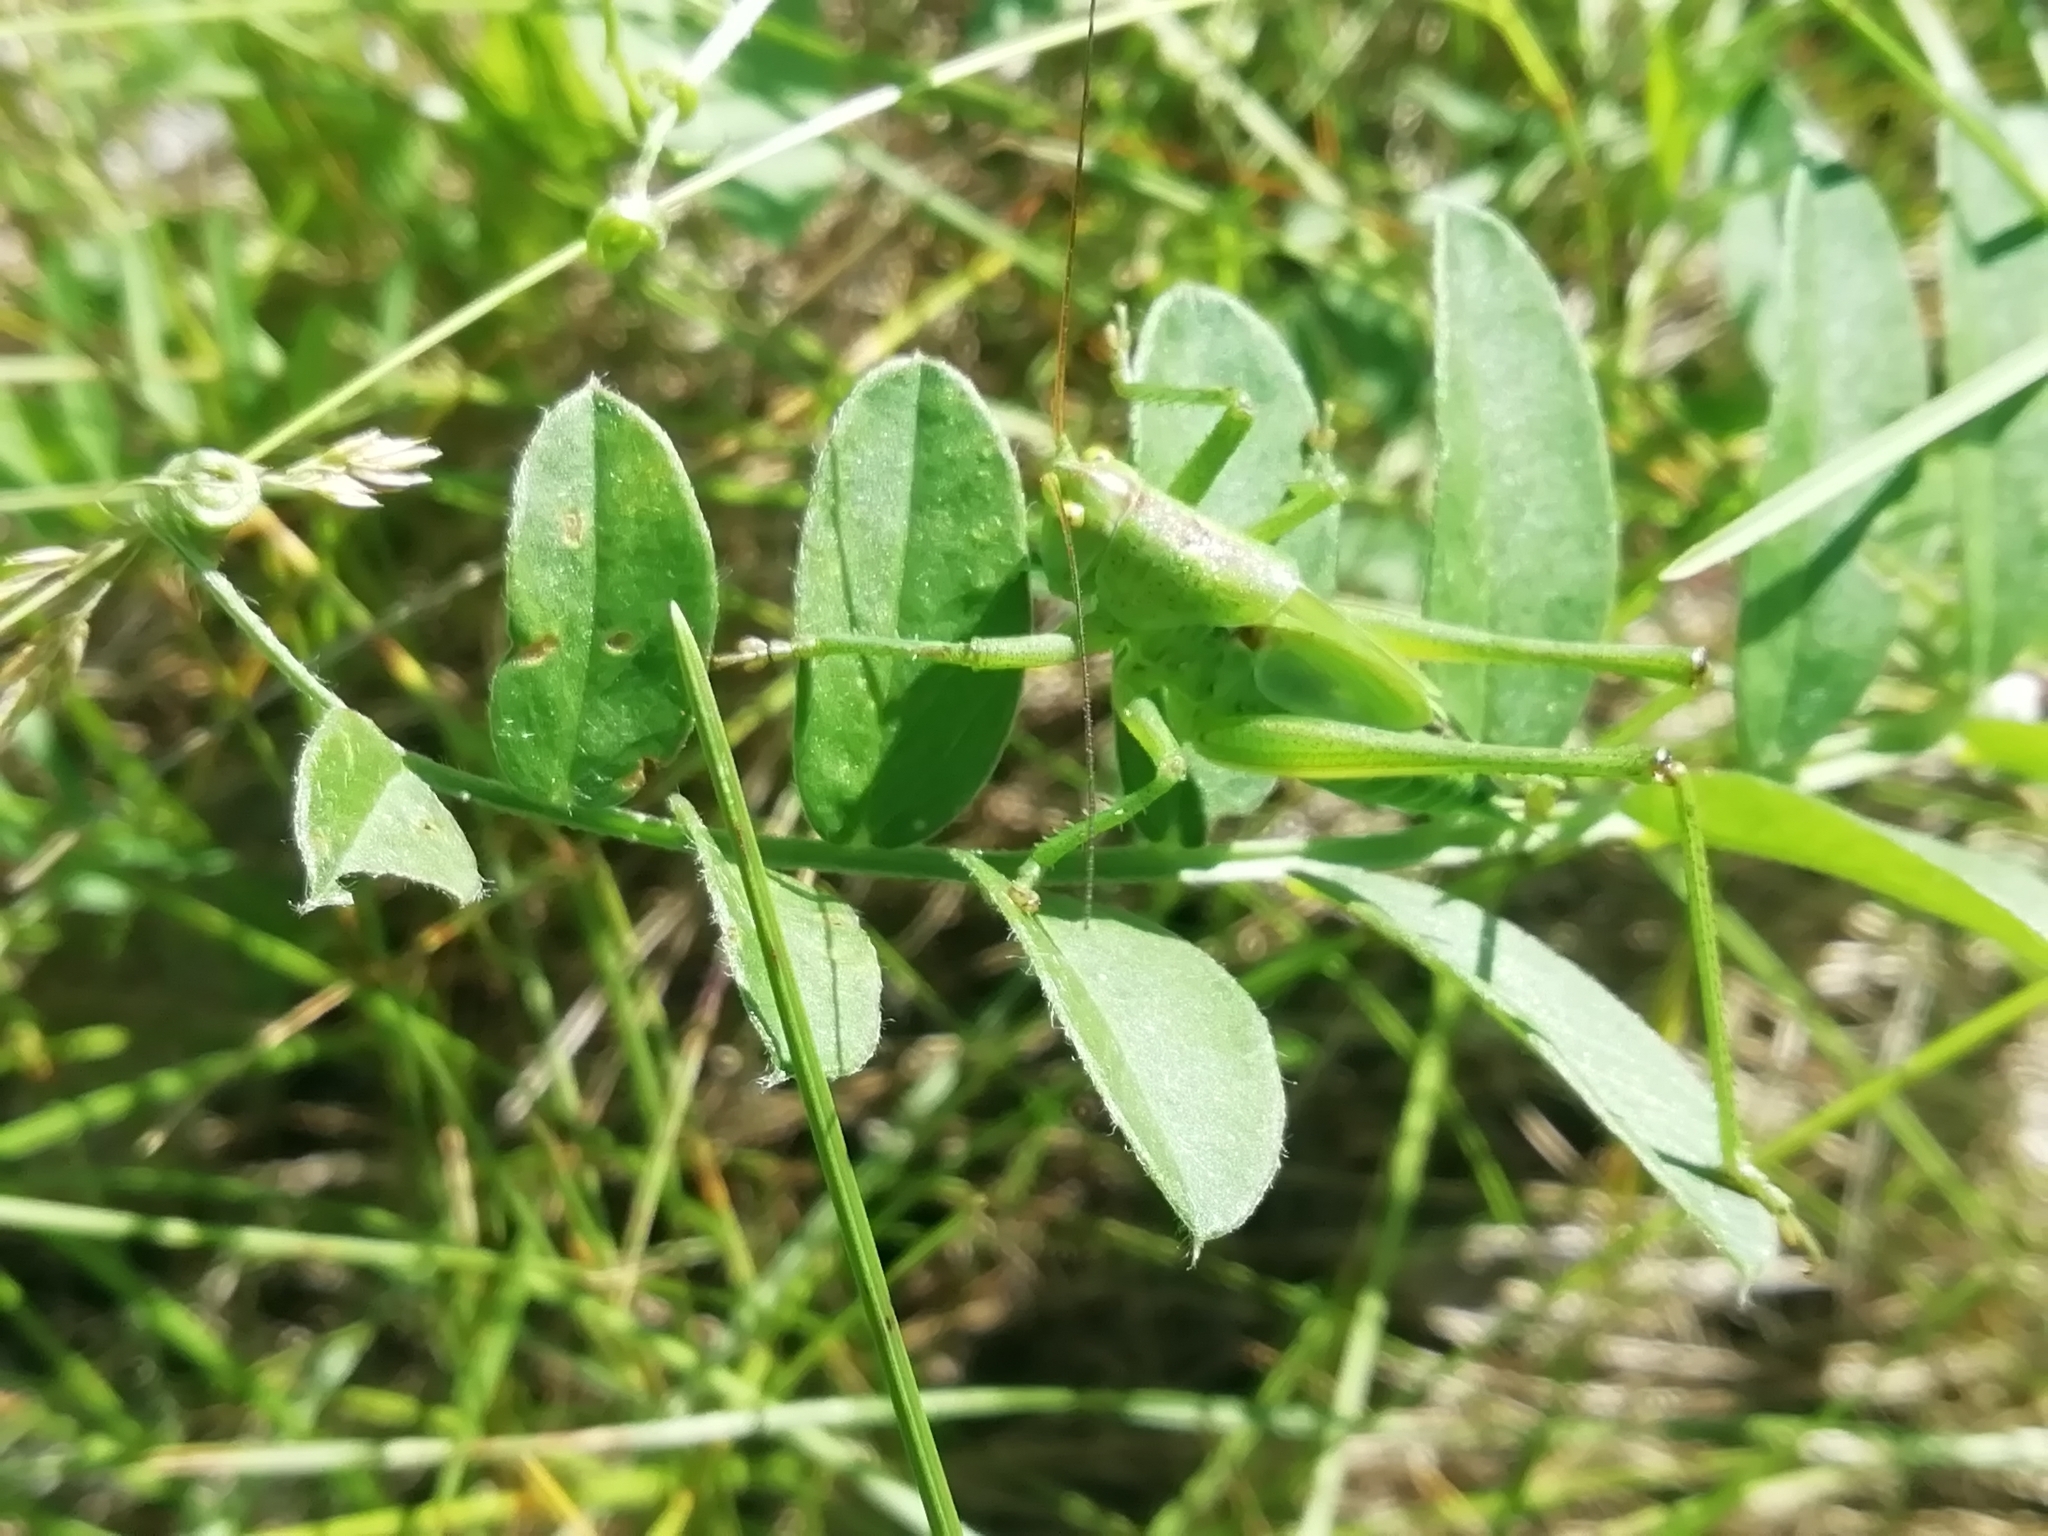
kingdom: Animalia
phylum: Arthropoda
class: Insecta
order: Orthoptera
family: Tettigoniidae
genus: Tettigonia
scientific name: Tettigonia viridissima
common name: Great green bush-cricket
